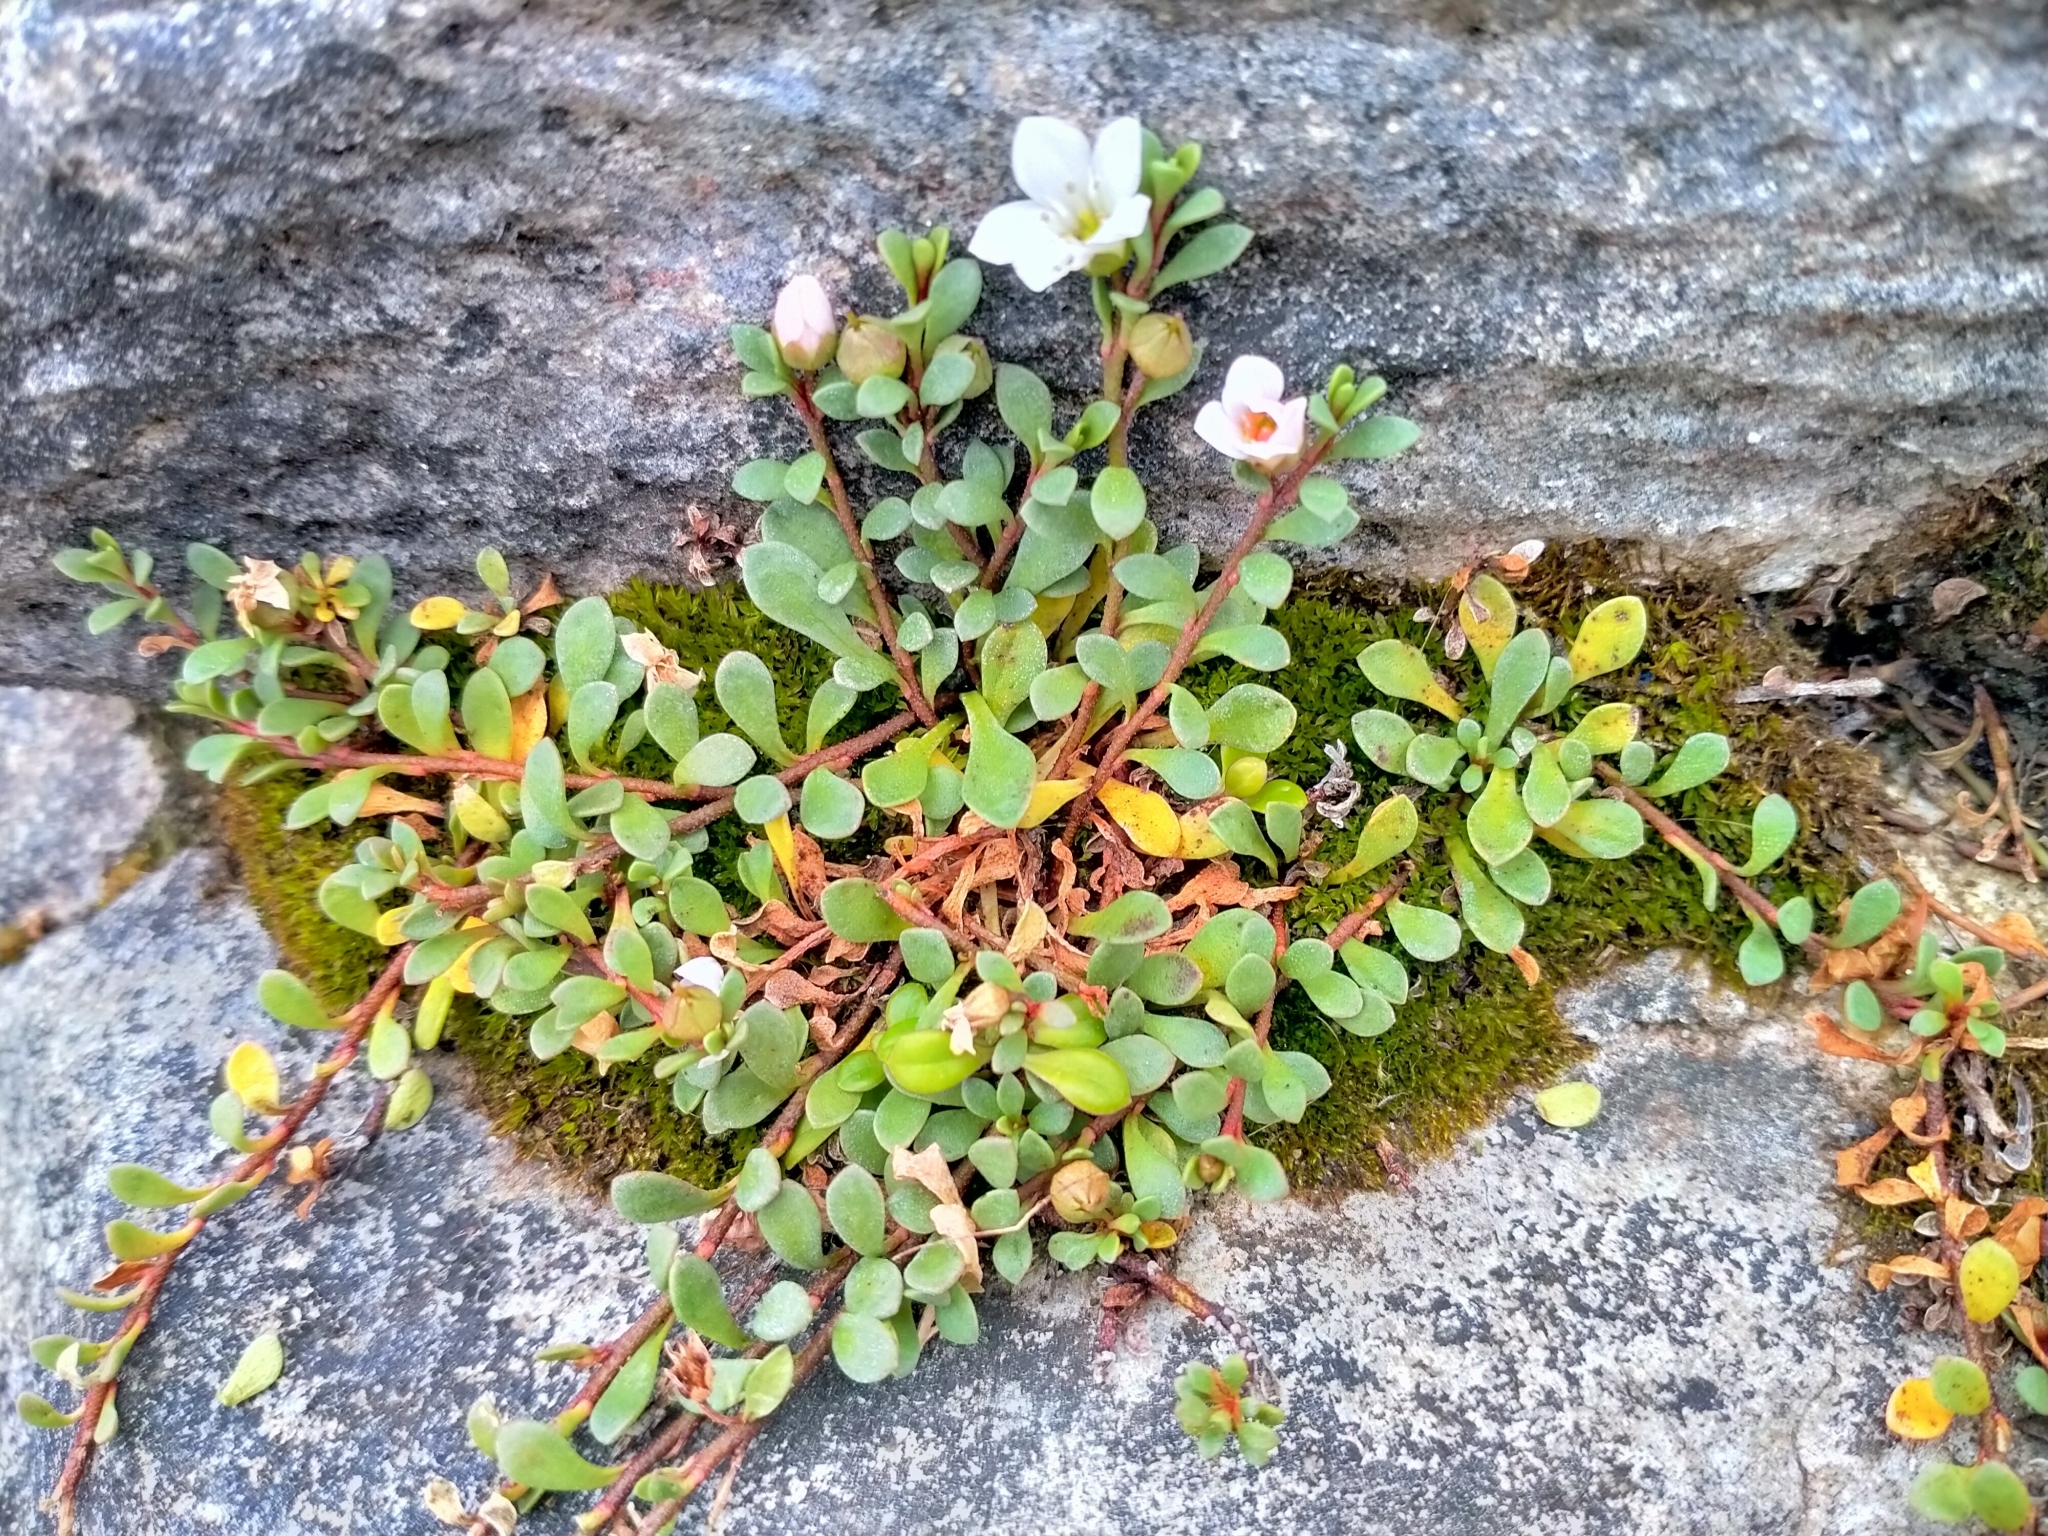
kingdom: Plantae
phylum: Tracheophyta
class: Magnoliopsida
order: Ericales
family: Primulaceae
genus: Samolus
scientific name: Samolus repens
